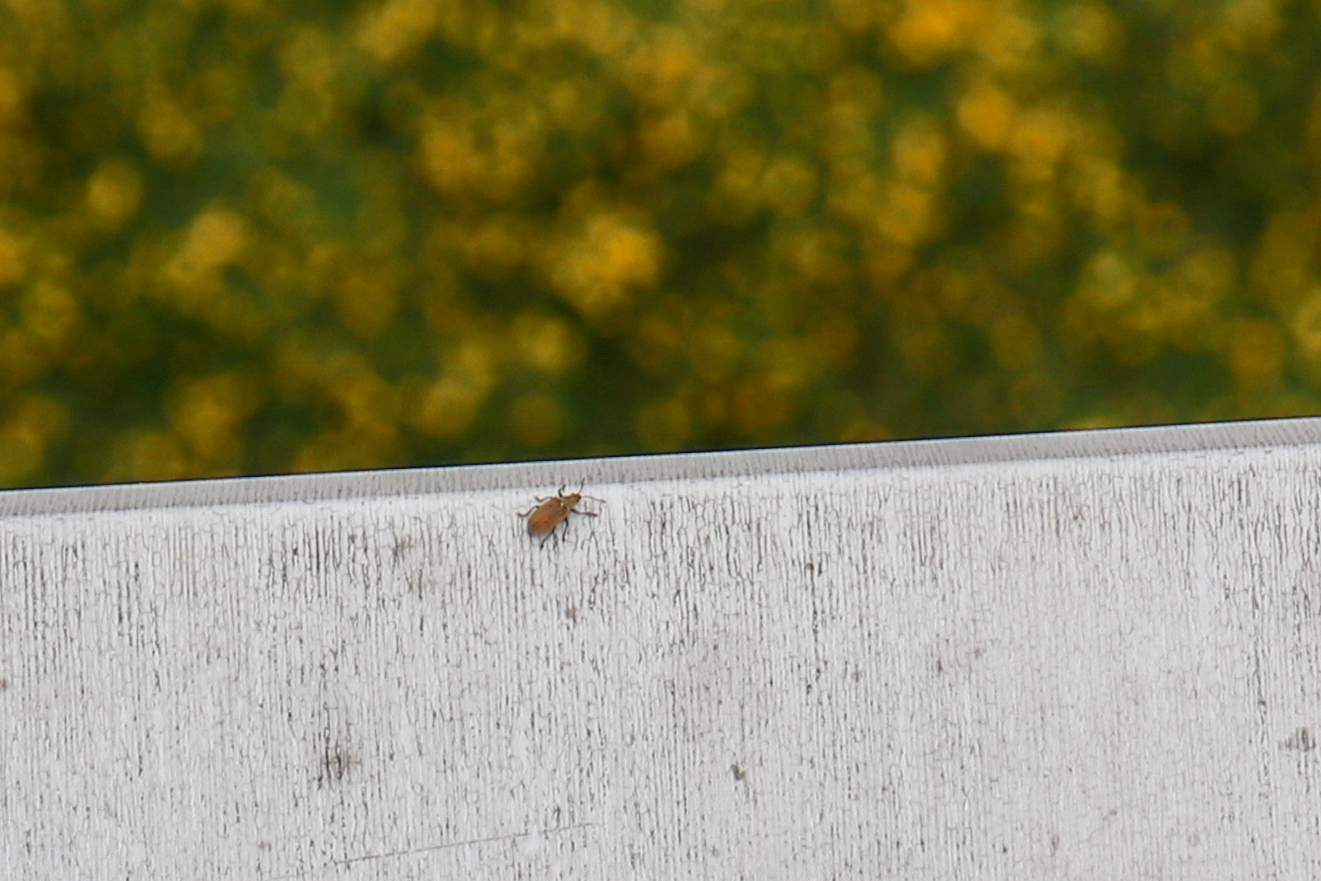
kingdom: Animalia
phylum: Arthropoda
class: Insecta
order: Coleoptera
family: Curculionidae
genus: Phyllobius
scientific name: Phyllobius pyri
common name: Common leaf weevil
